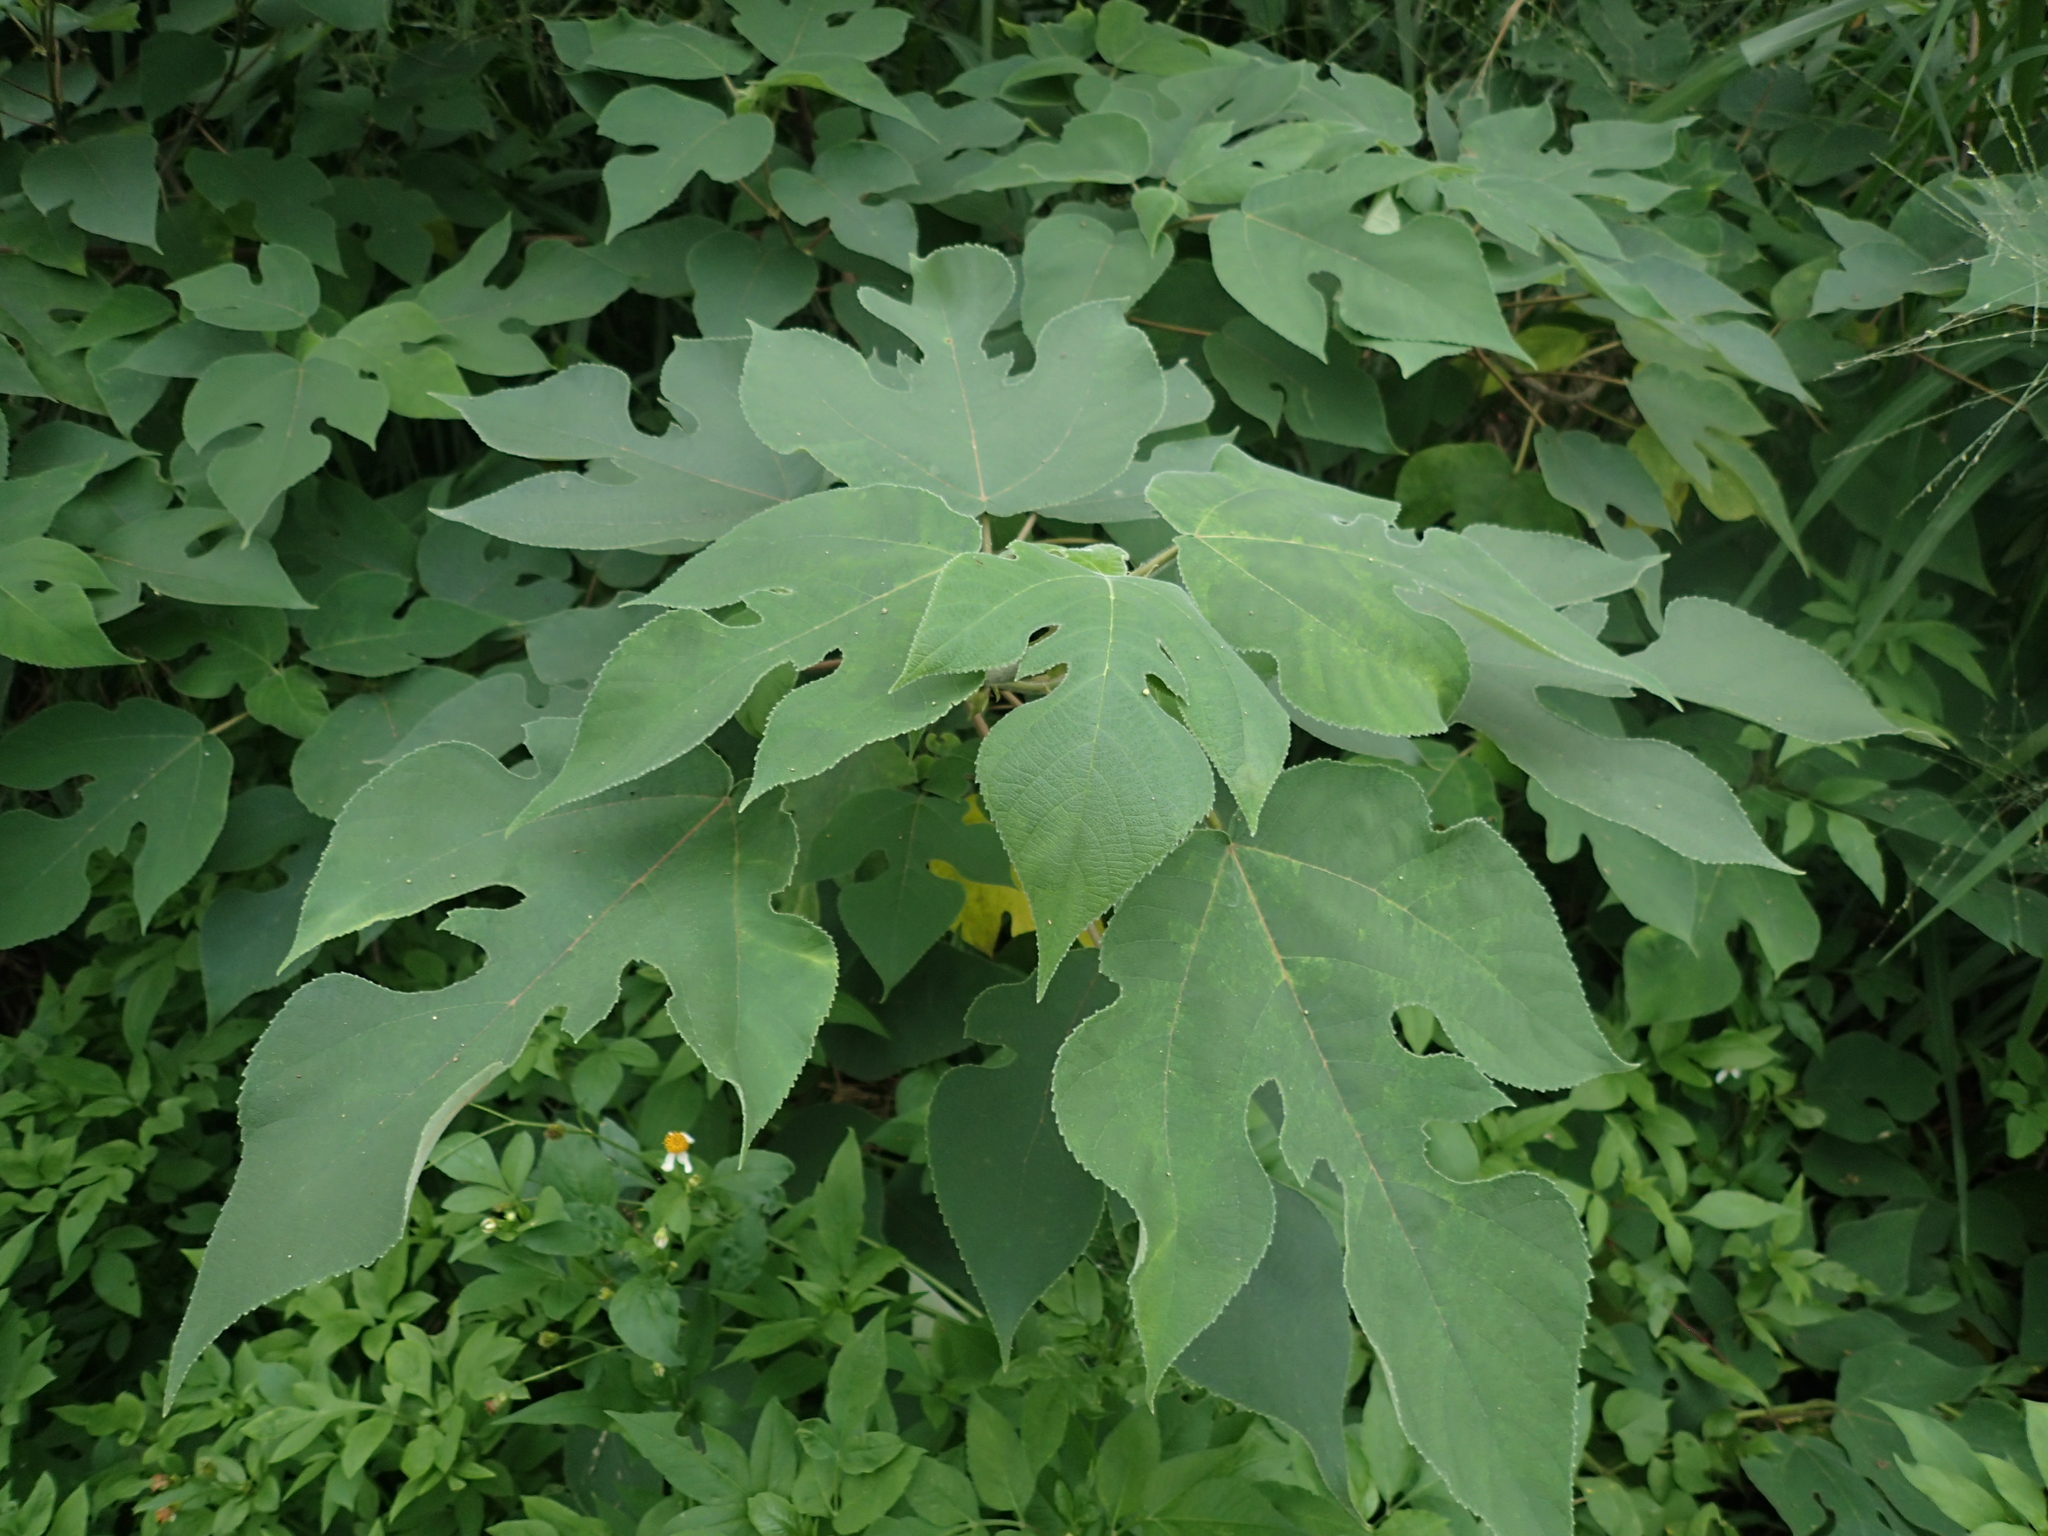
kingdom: Plantae
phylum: Tracheophyta
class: Magnoliopsida
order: Rosales
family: Moraceae
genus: Broussonetia
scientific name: Broussonetia papyrifera
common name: Paper mulberry
